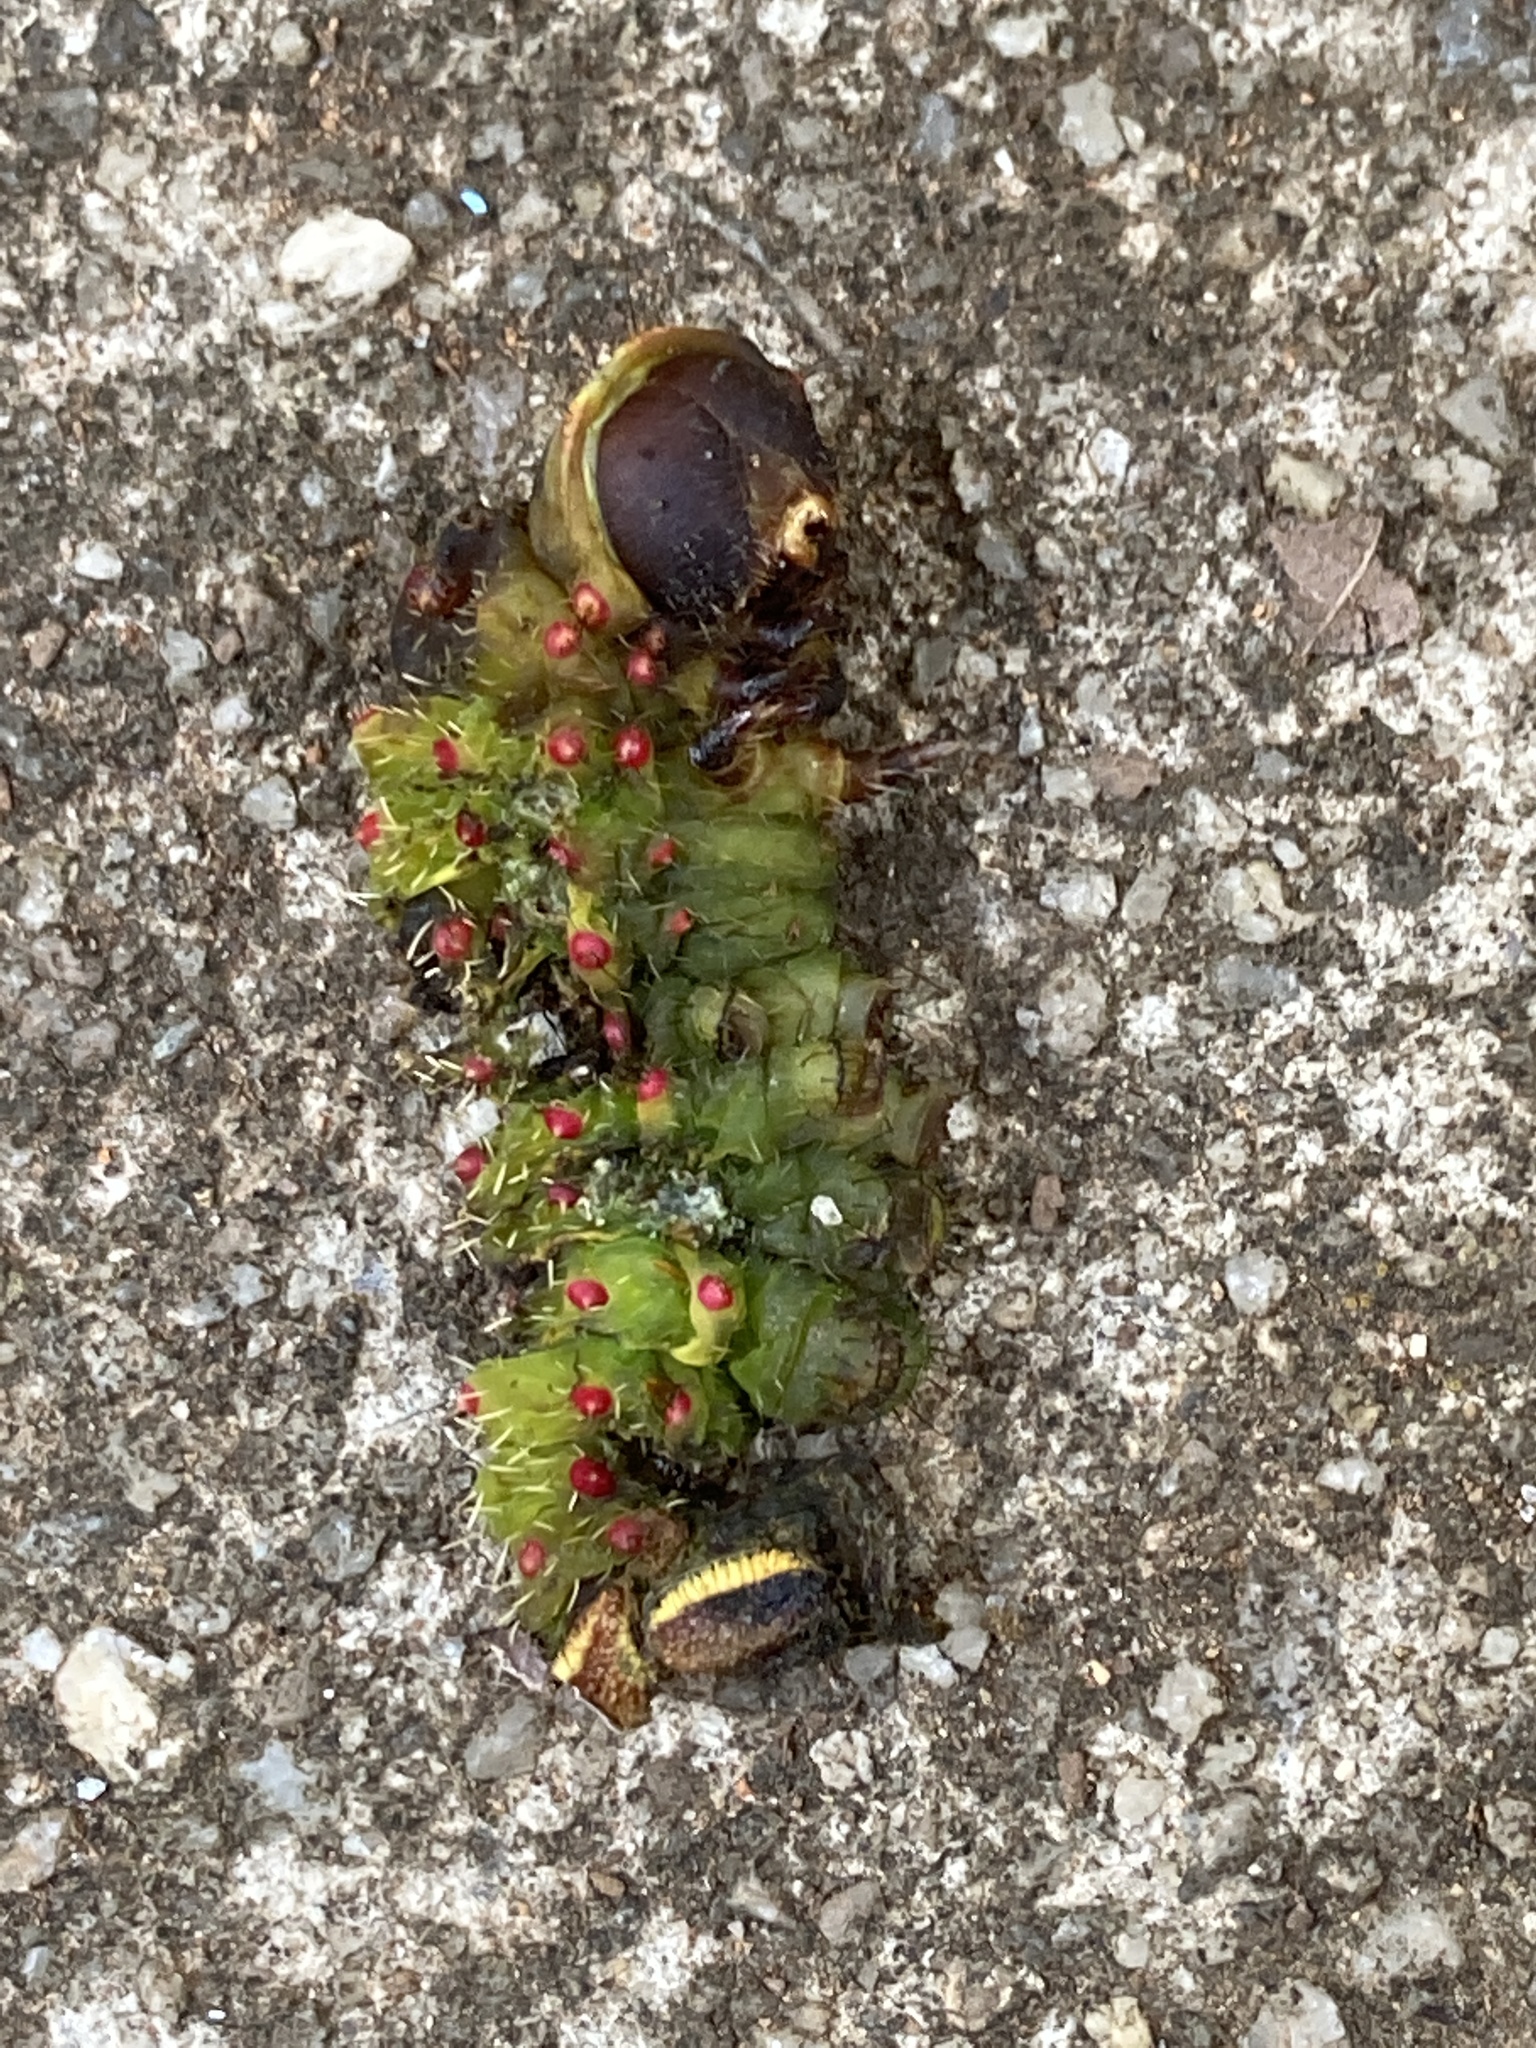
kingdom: Animalia
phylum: Arthropoda
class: Insecta
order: Lepidoptera
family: Saturniidae
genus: Actias
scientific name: Actias luna
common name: Luna moth
